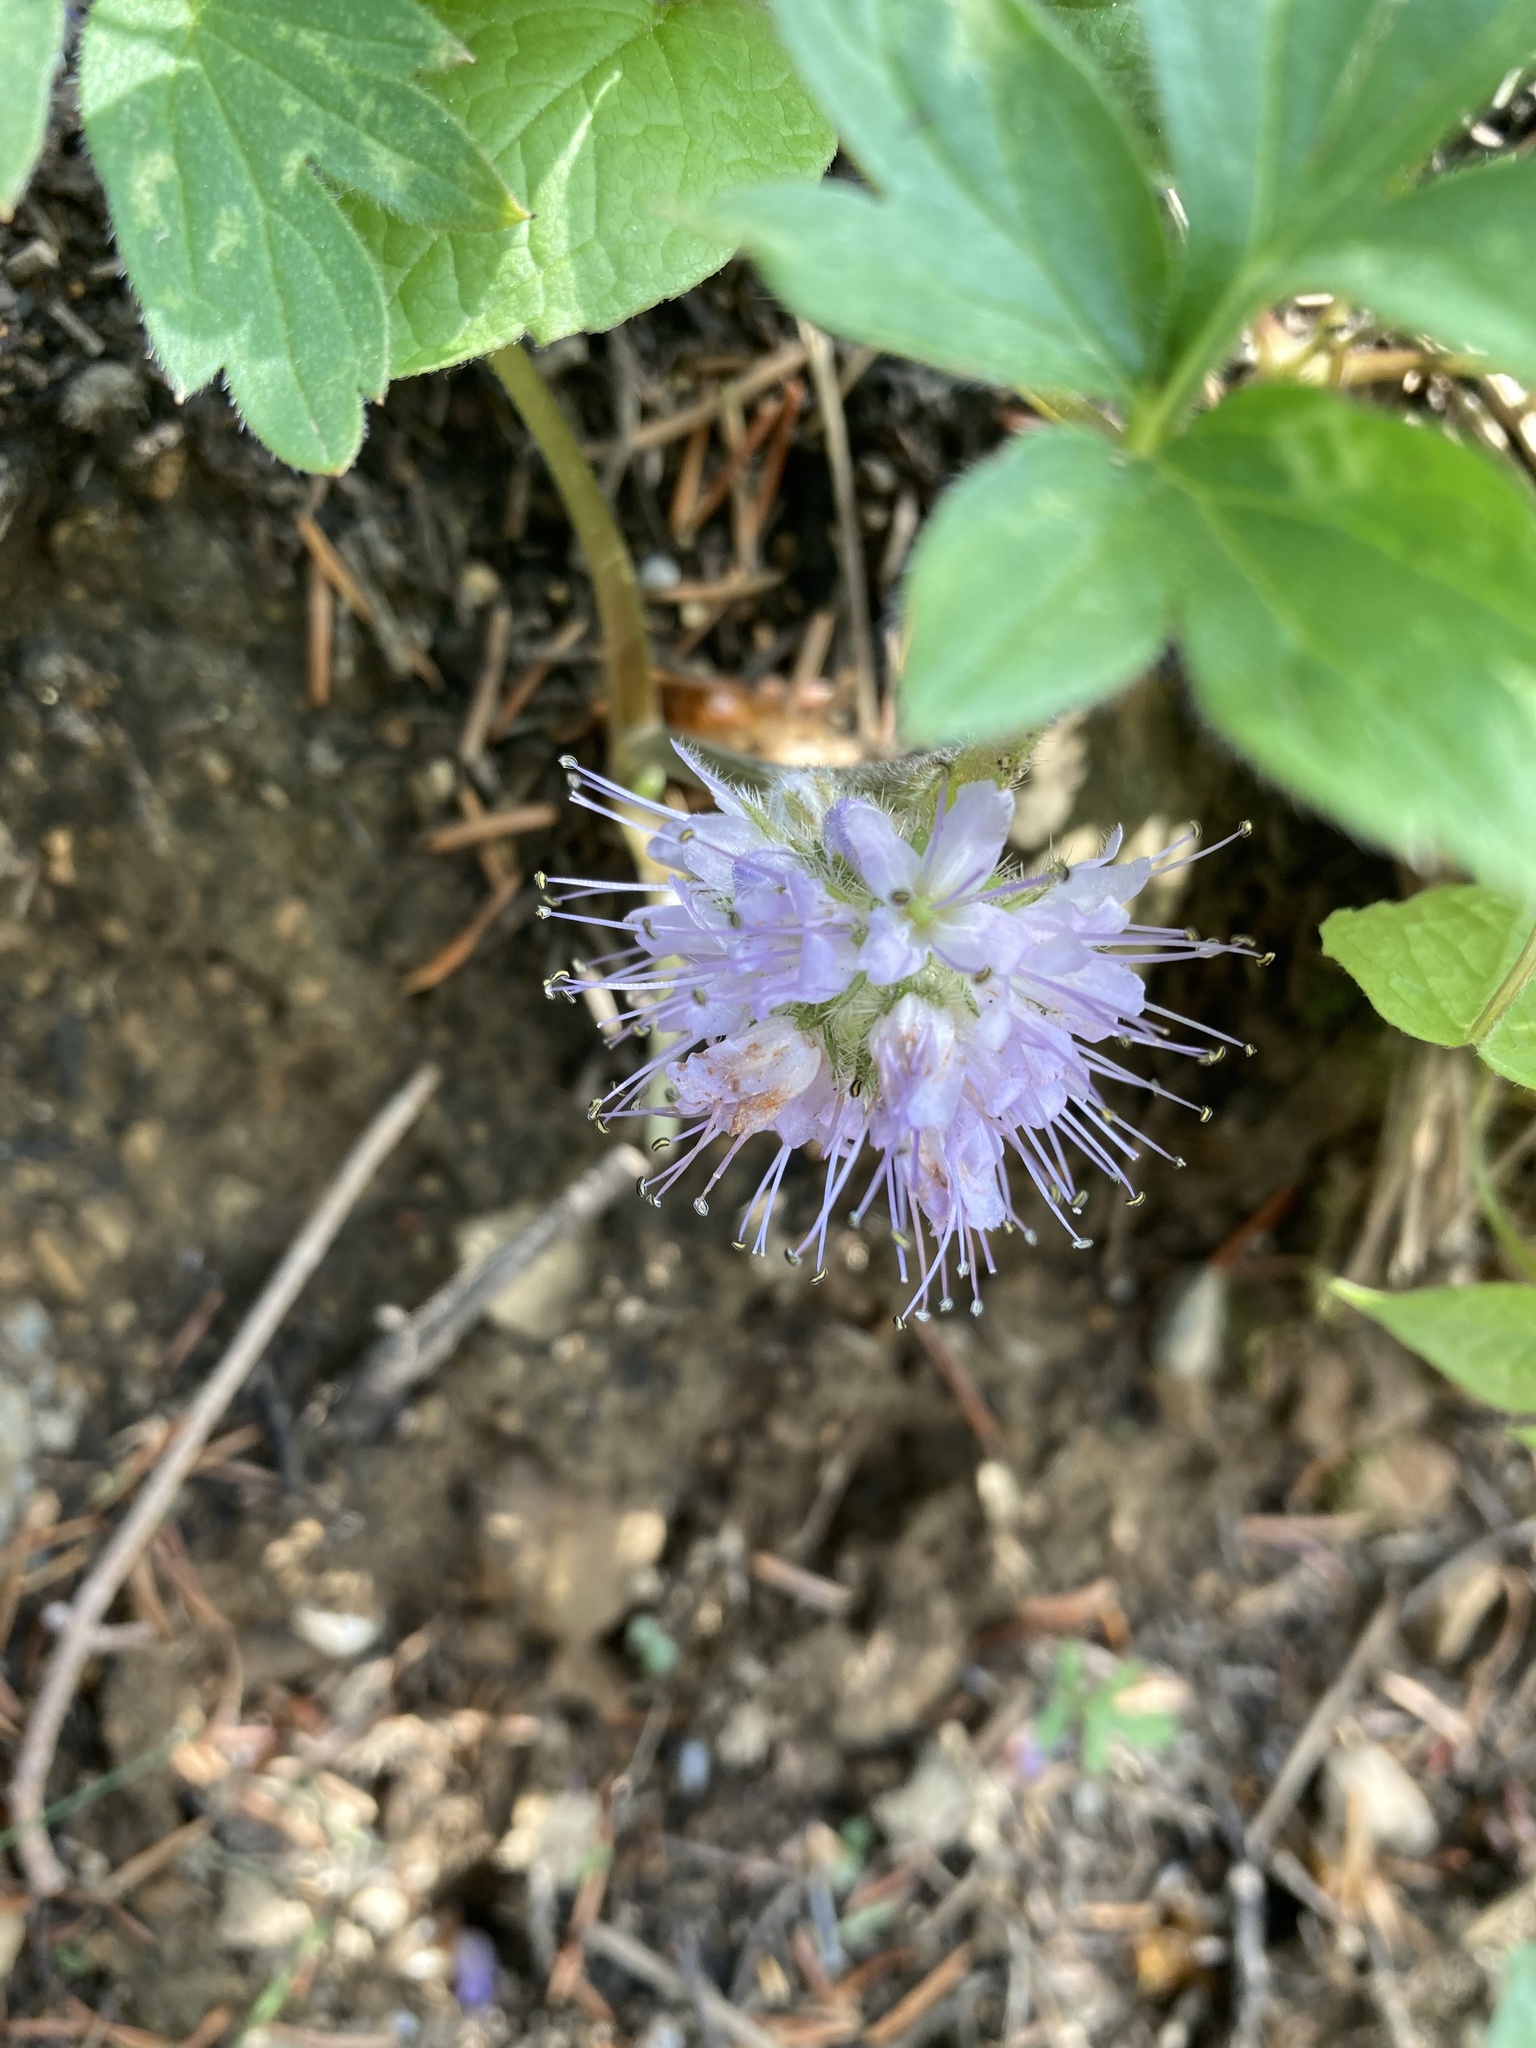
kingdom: Plantae
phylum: Tracheophyta
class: Magnoliopsida
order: Boraginales
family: Hydrophyllaceae
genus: Hydrophyllum
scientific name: Hydrophyllum capitatum
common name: Woollen-breeches
